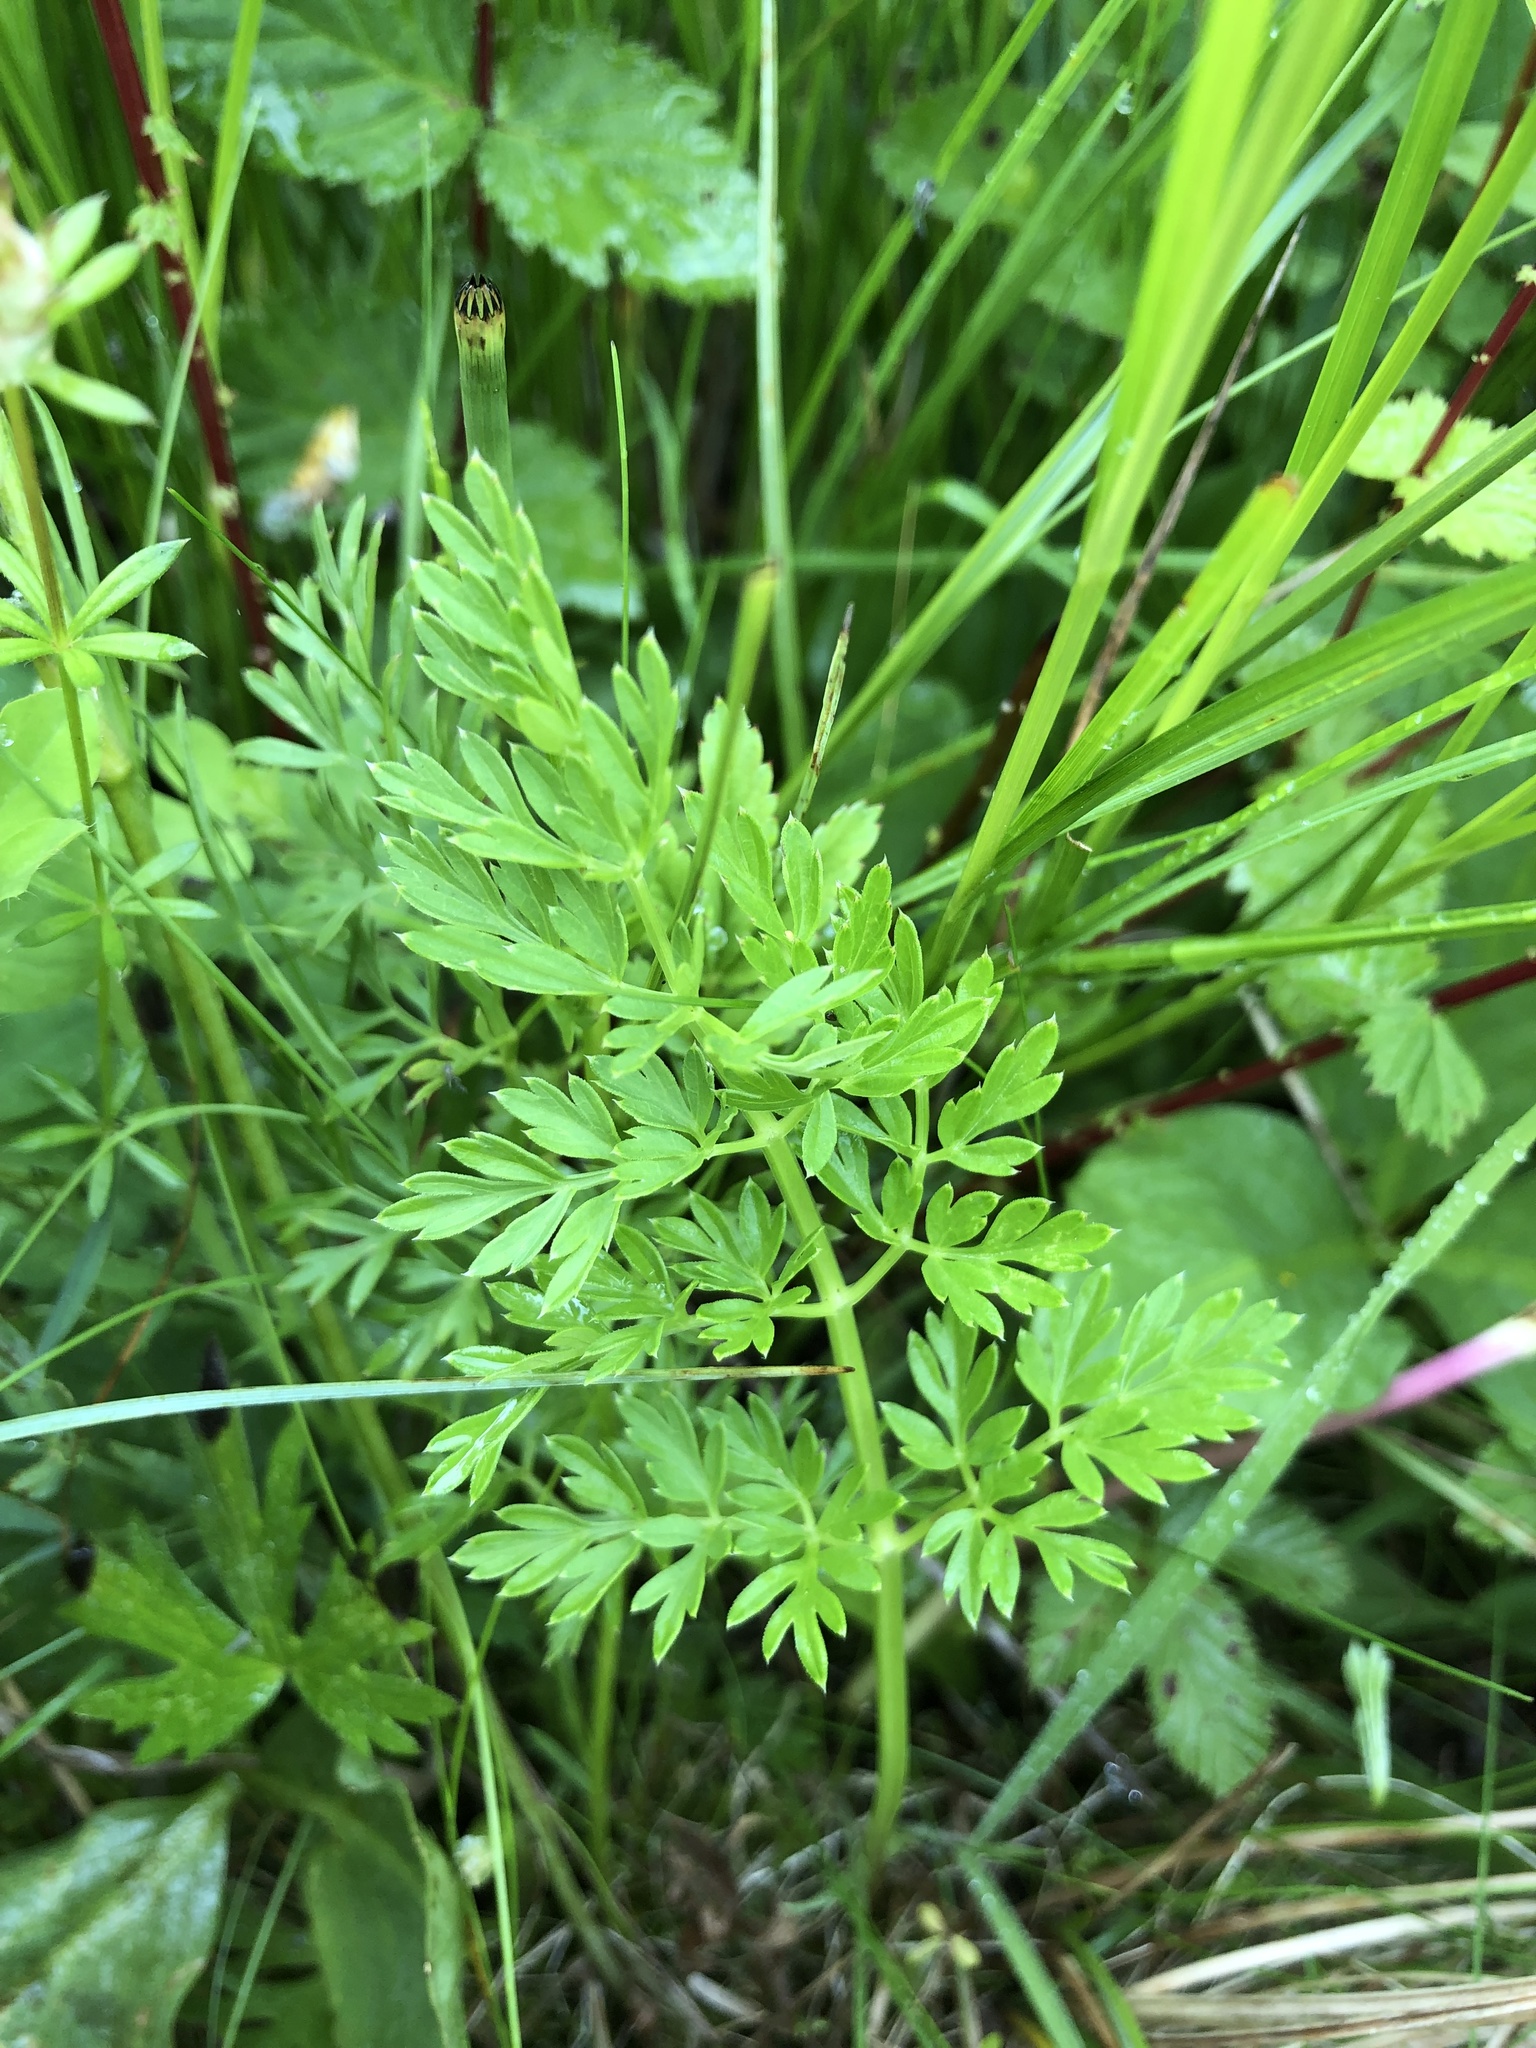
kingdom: Plantae
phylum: Tracheophyta
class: Magnoliopsida
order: Apiales
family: Apiaceae
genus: Selinum
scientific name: Selinum carvifolia
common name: Cambridge milk-parsley
